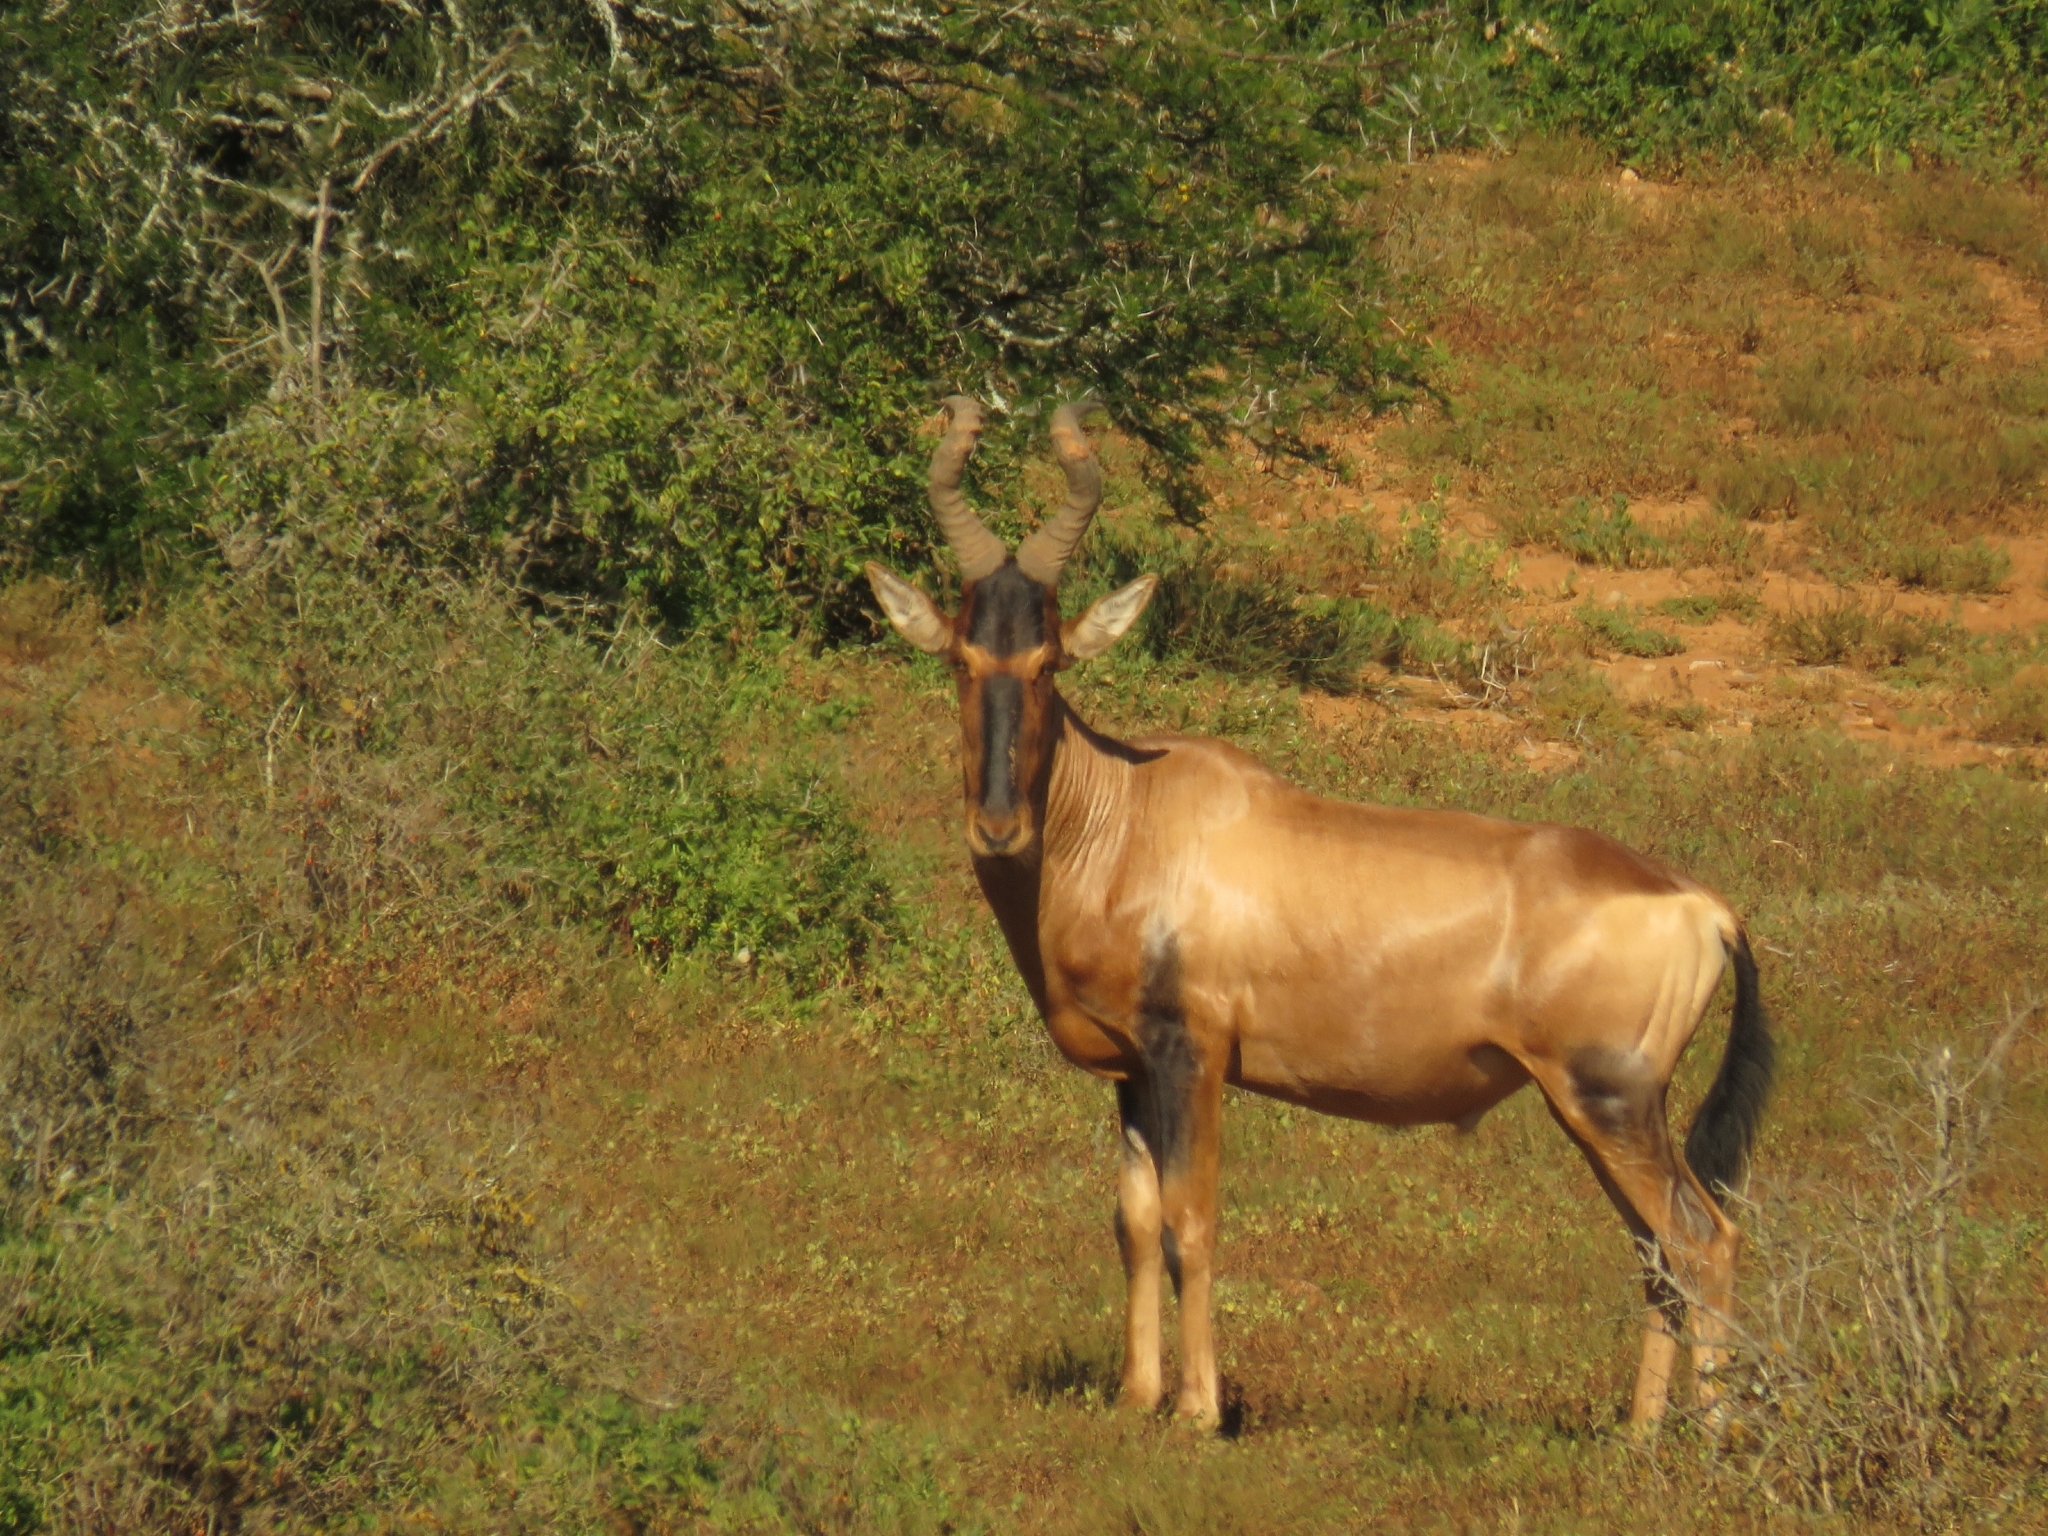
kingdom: Animalia
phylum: Chordata
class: Mammalia
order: Artiodactyla
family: Bovidae
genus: Alcelaphus
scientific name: Alcelaphus caama
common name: Red hartebeest
